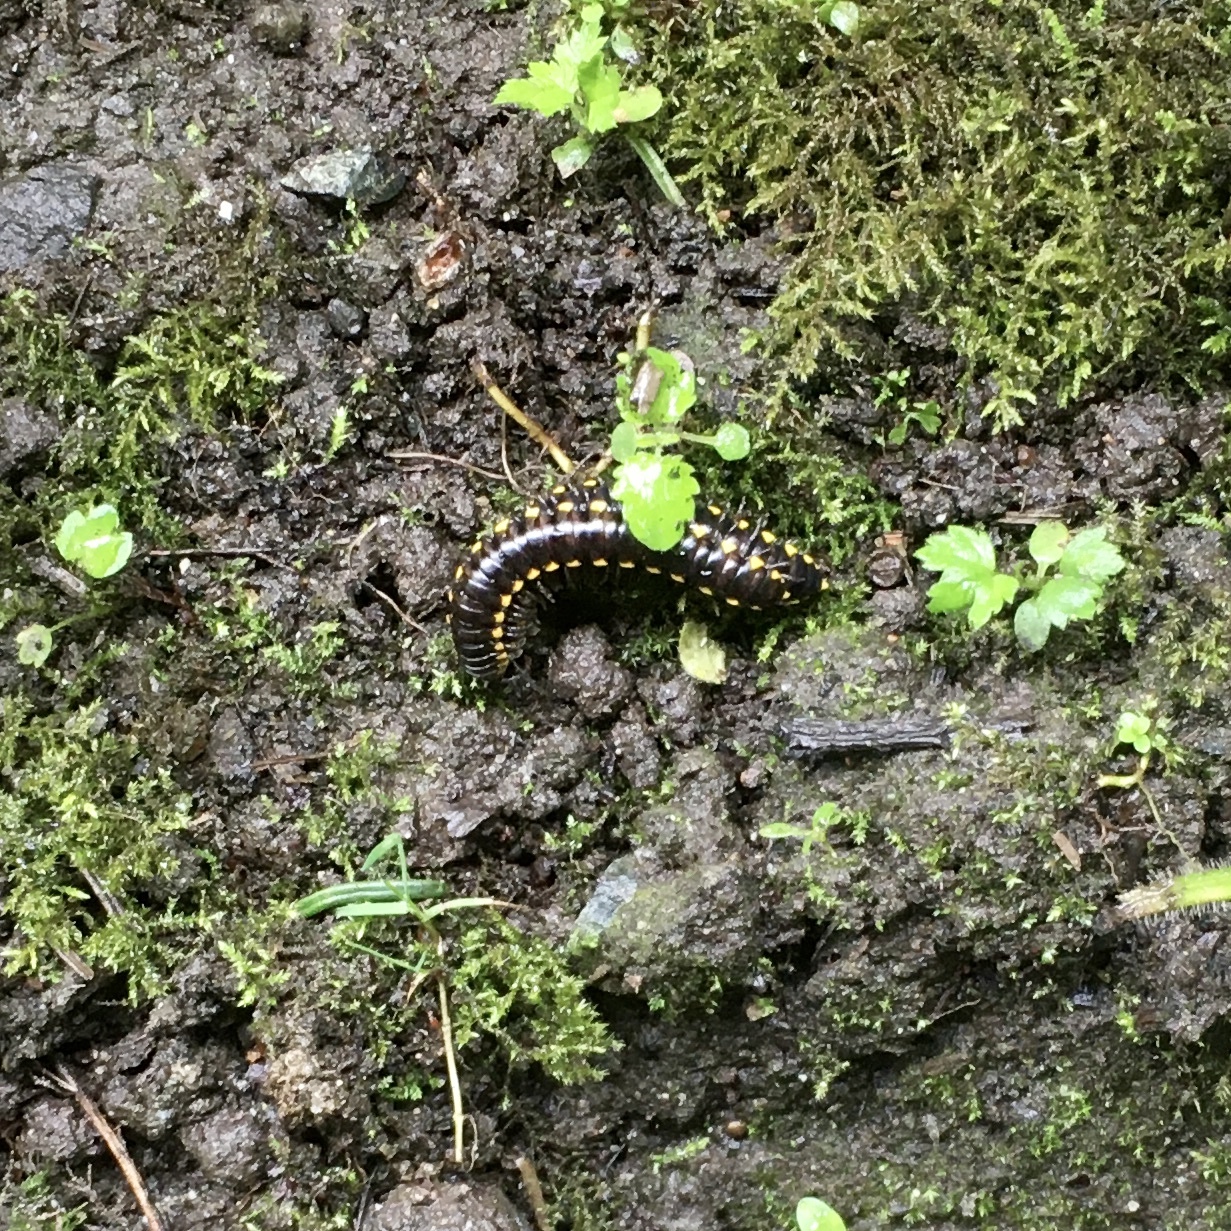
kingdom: Animalia
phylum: Arthropoda
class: Diplopoda
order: Polydesmida
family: Xystodesmidae
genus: Harpaphe
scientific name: Harpaphe haydeniana
